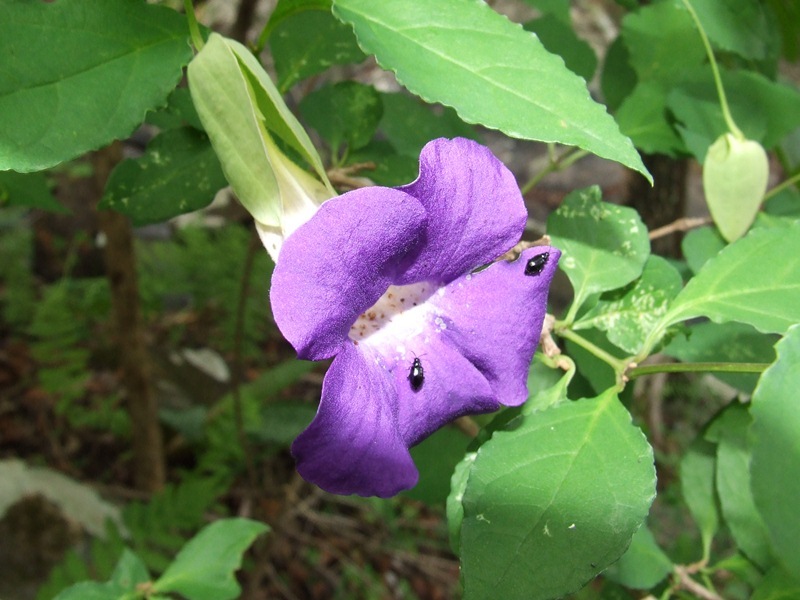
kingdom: Plantae
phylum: Tracheophyta
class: Magnoliopsida
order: Lamiales
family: Acanthaceae
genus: Thunbergia
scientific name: Thunbergia crispa
